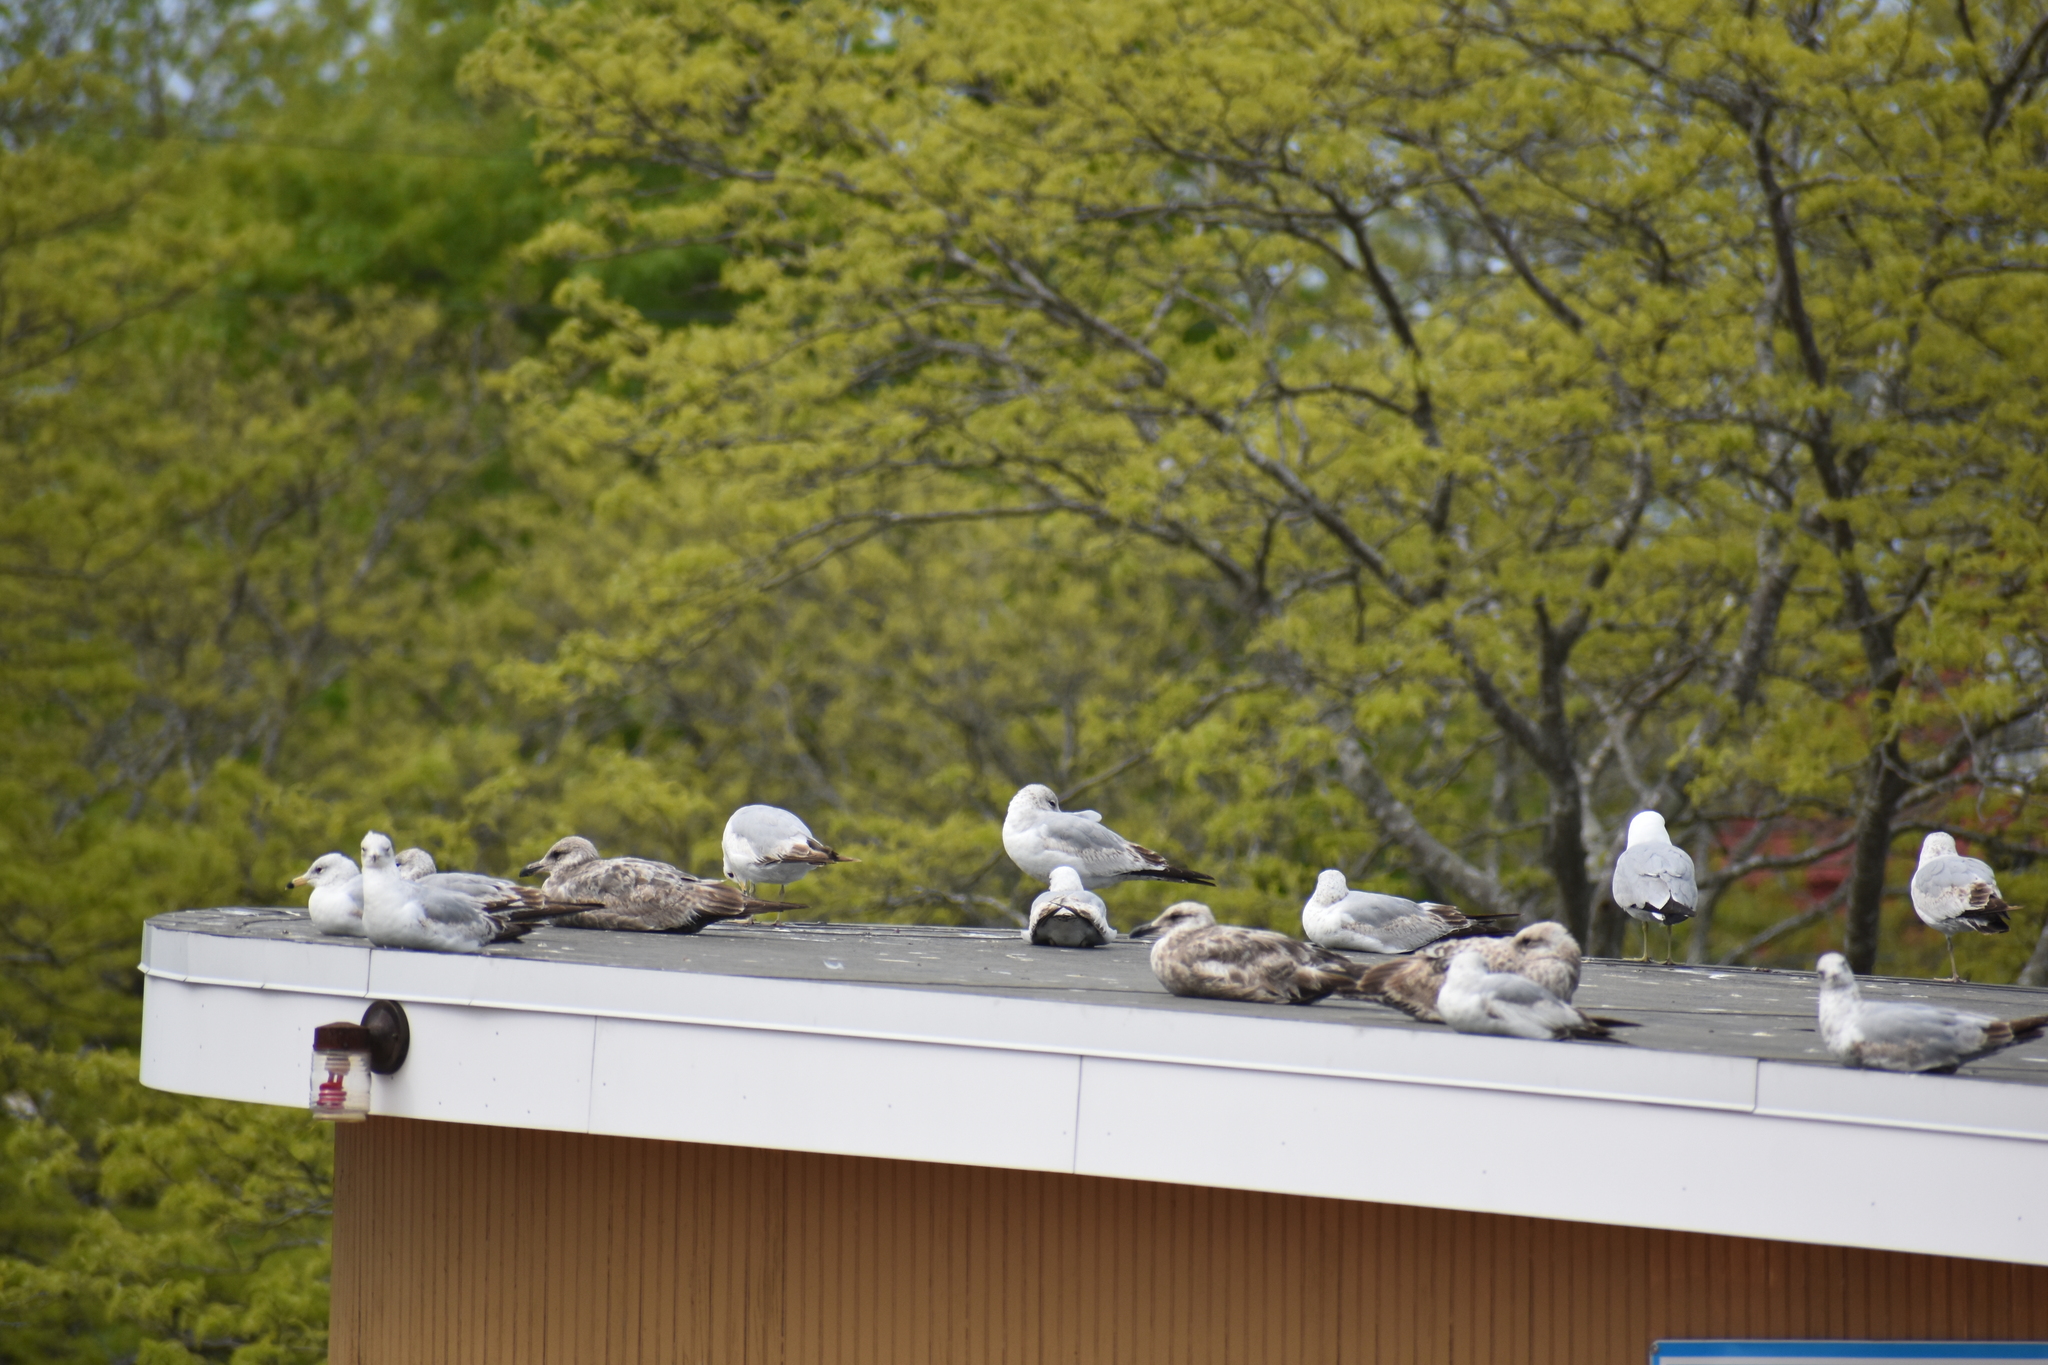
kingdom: Animalia
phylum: Chordata
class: Aves
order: Charadriiformes
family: Laridae
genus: Larus
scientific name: Larus delawarensis
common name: Ring-billed gull
